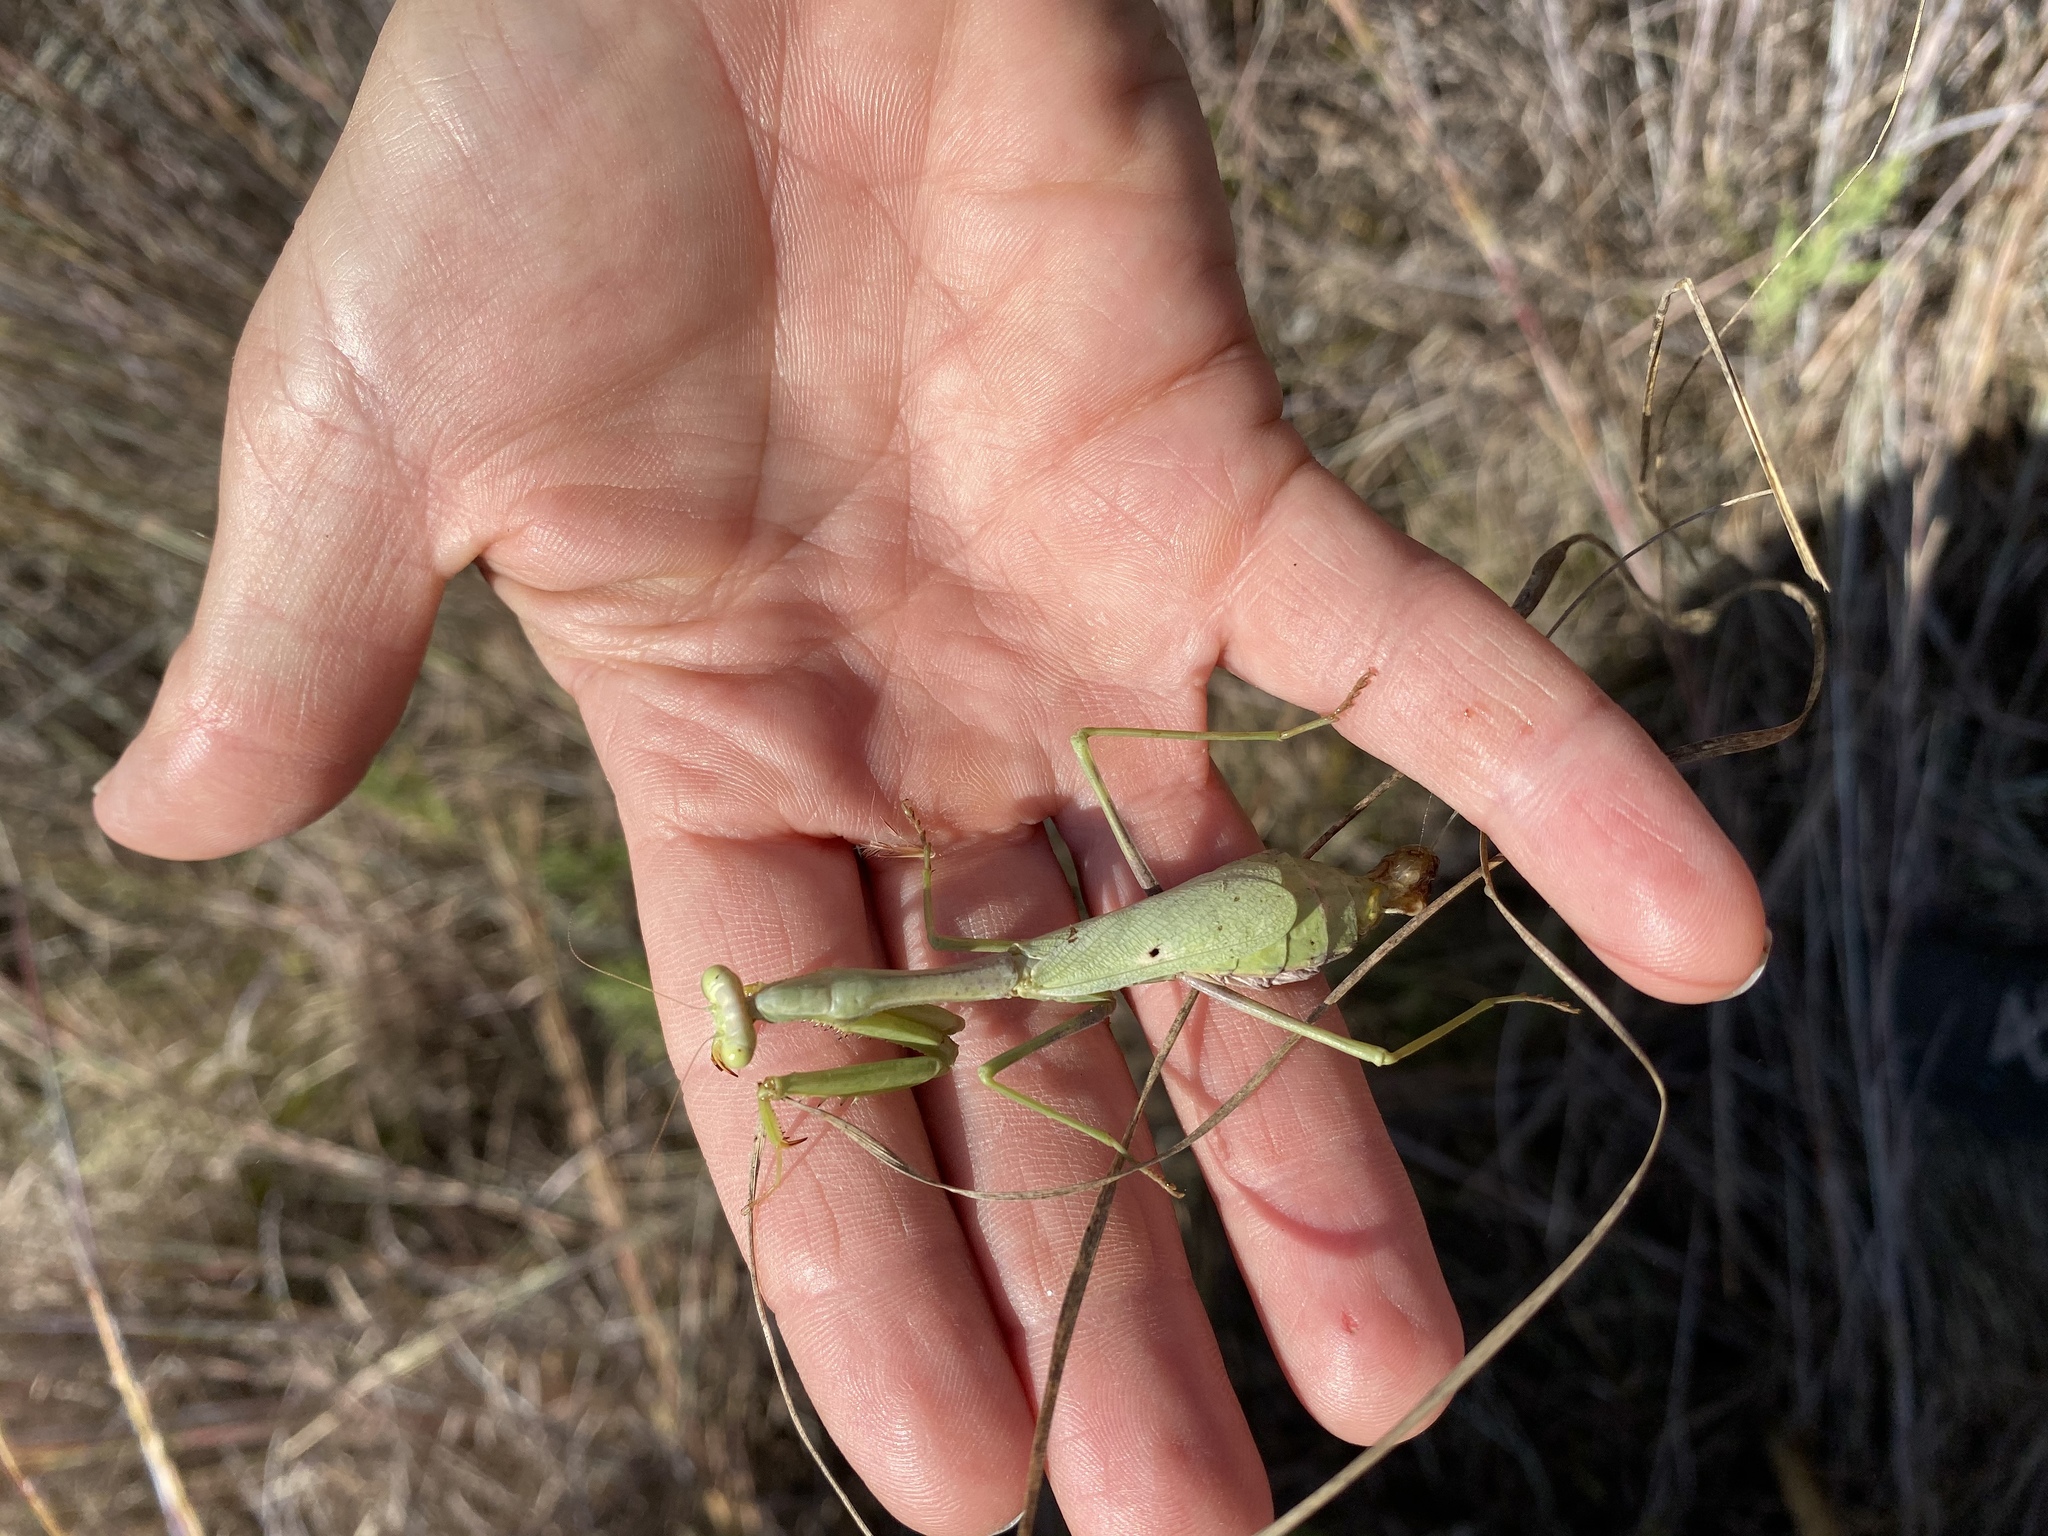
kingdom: Animalia
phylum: Arthropoda
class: Insecta
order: Mantodea
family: Mantidae
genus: Stagmomantis
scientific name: Stagmomantis carolina
